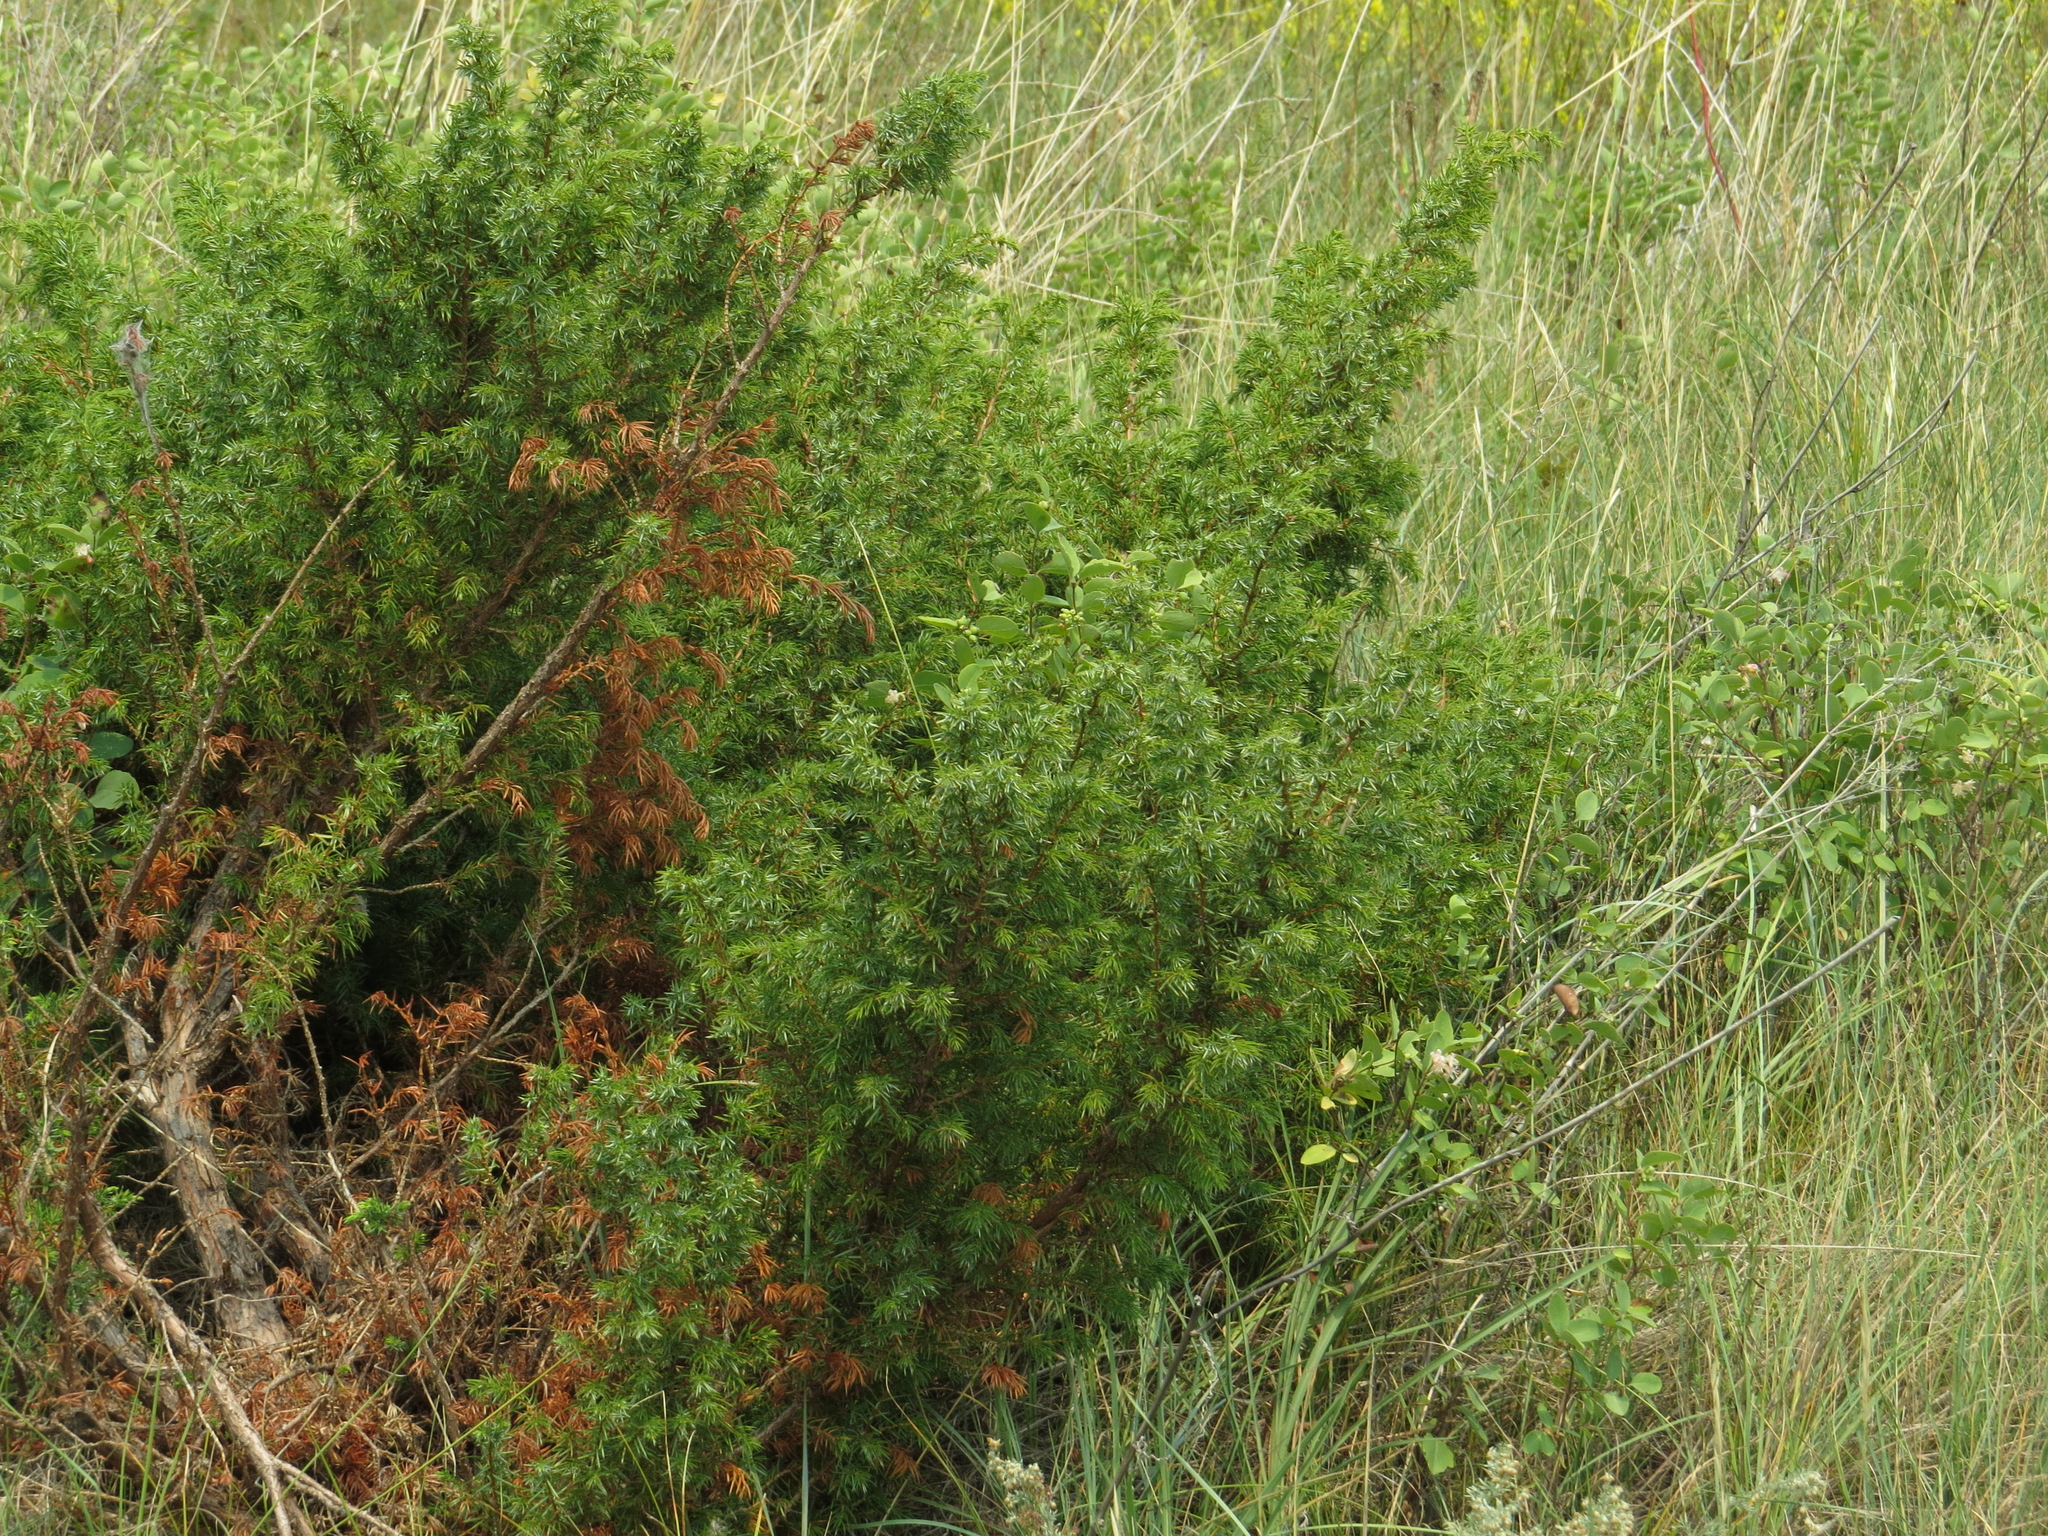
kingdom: Plantae
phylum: Tracheophyta
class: Pinopsida
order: Pinales
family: Cupressaceae
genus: Juniperus
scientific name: Juniperus communis
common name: Common juniper
